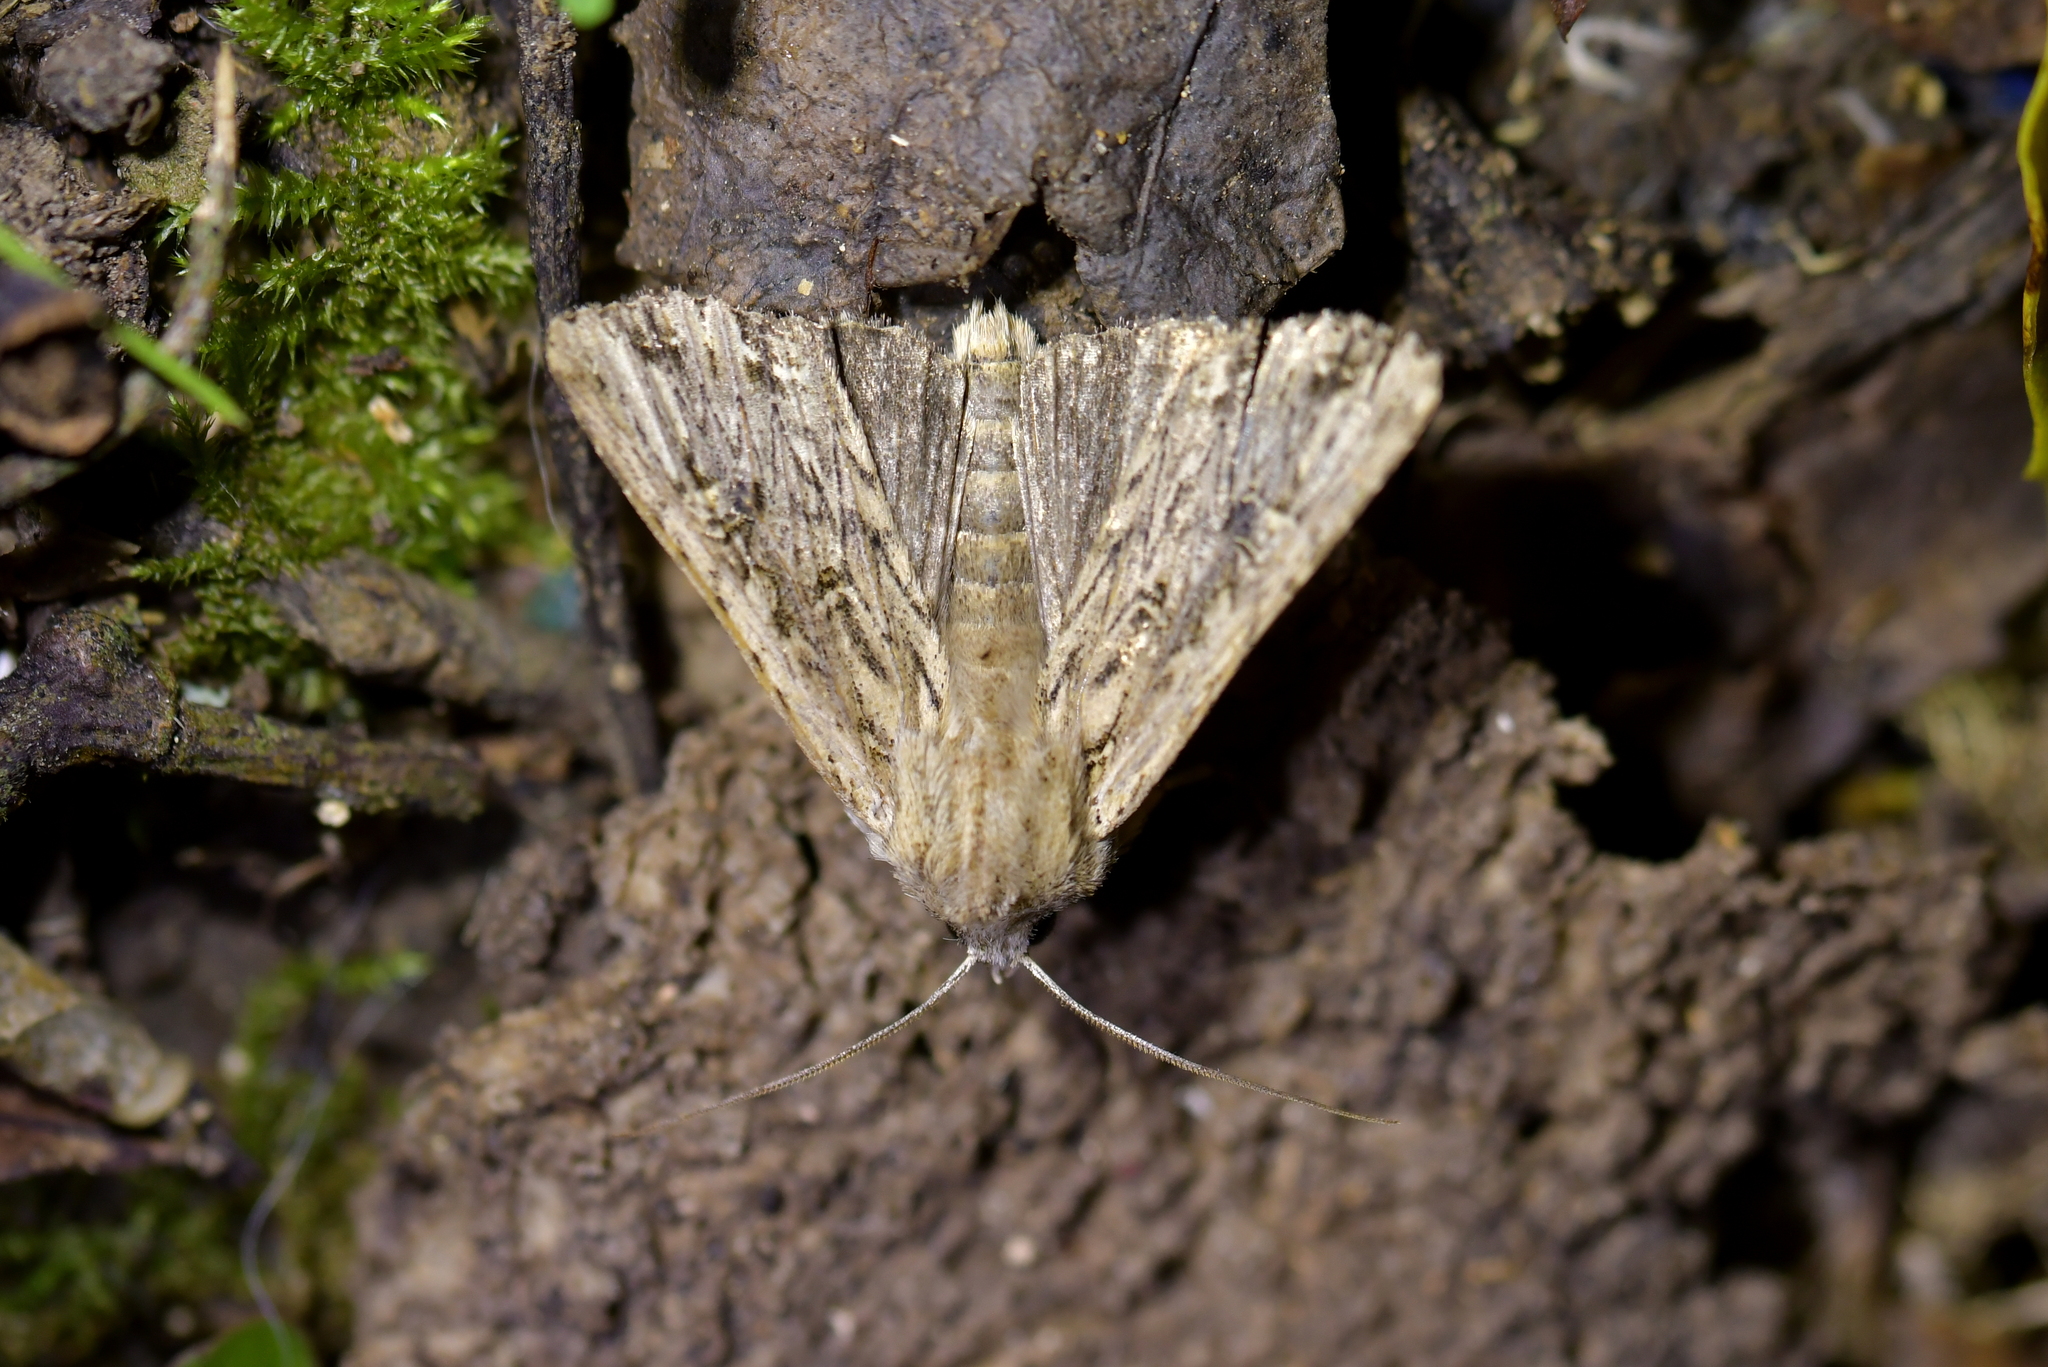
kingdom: Animalia
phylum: Arthropoda
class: Insecta
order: Lepidoptera
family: Noctuidae
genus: Ichneutica
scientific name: Ichneutica lignana
